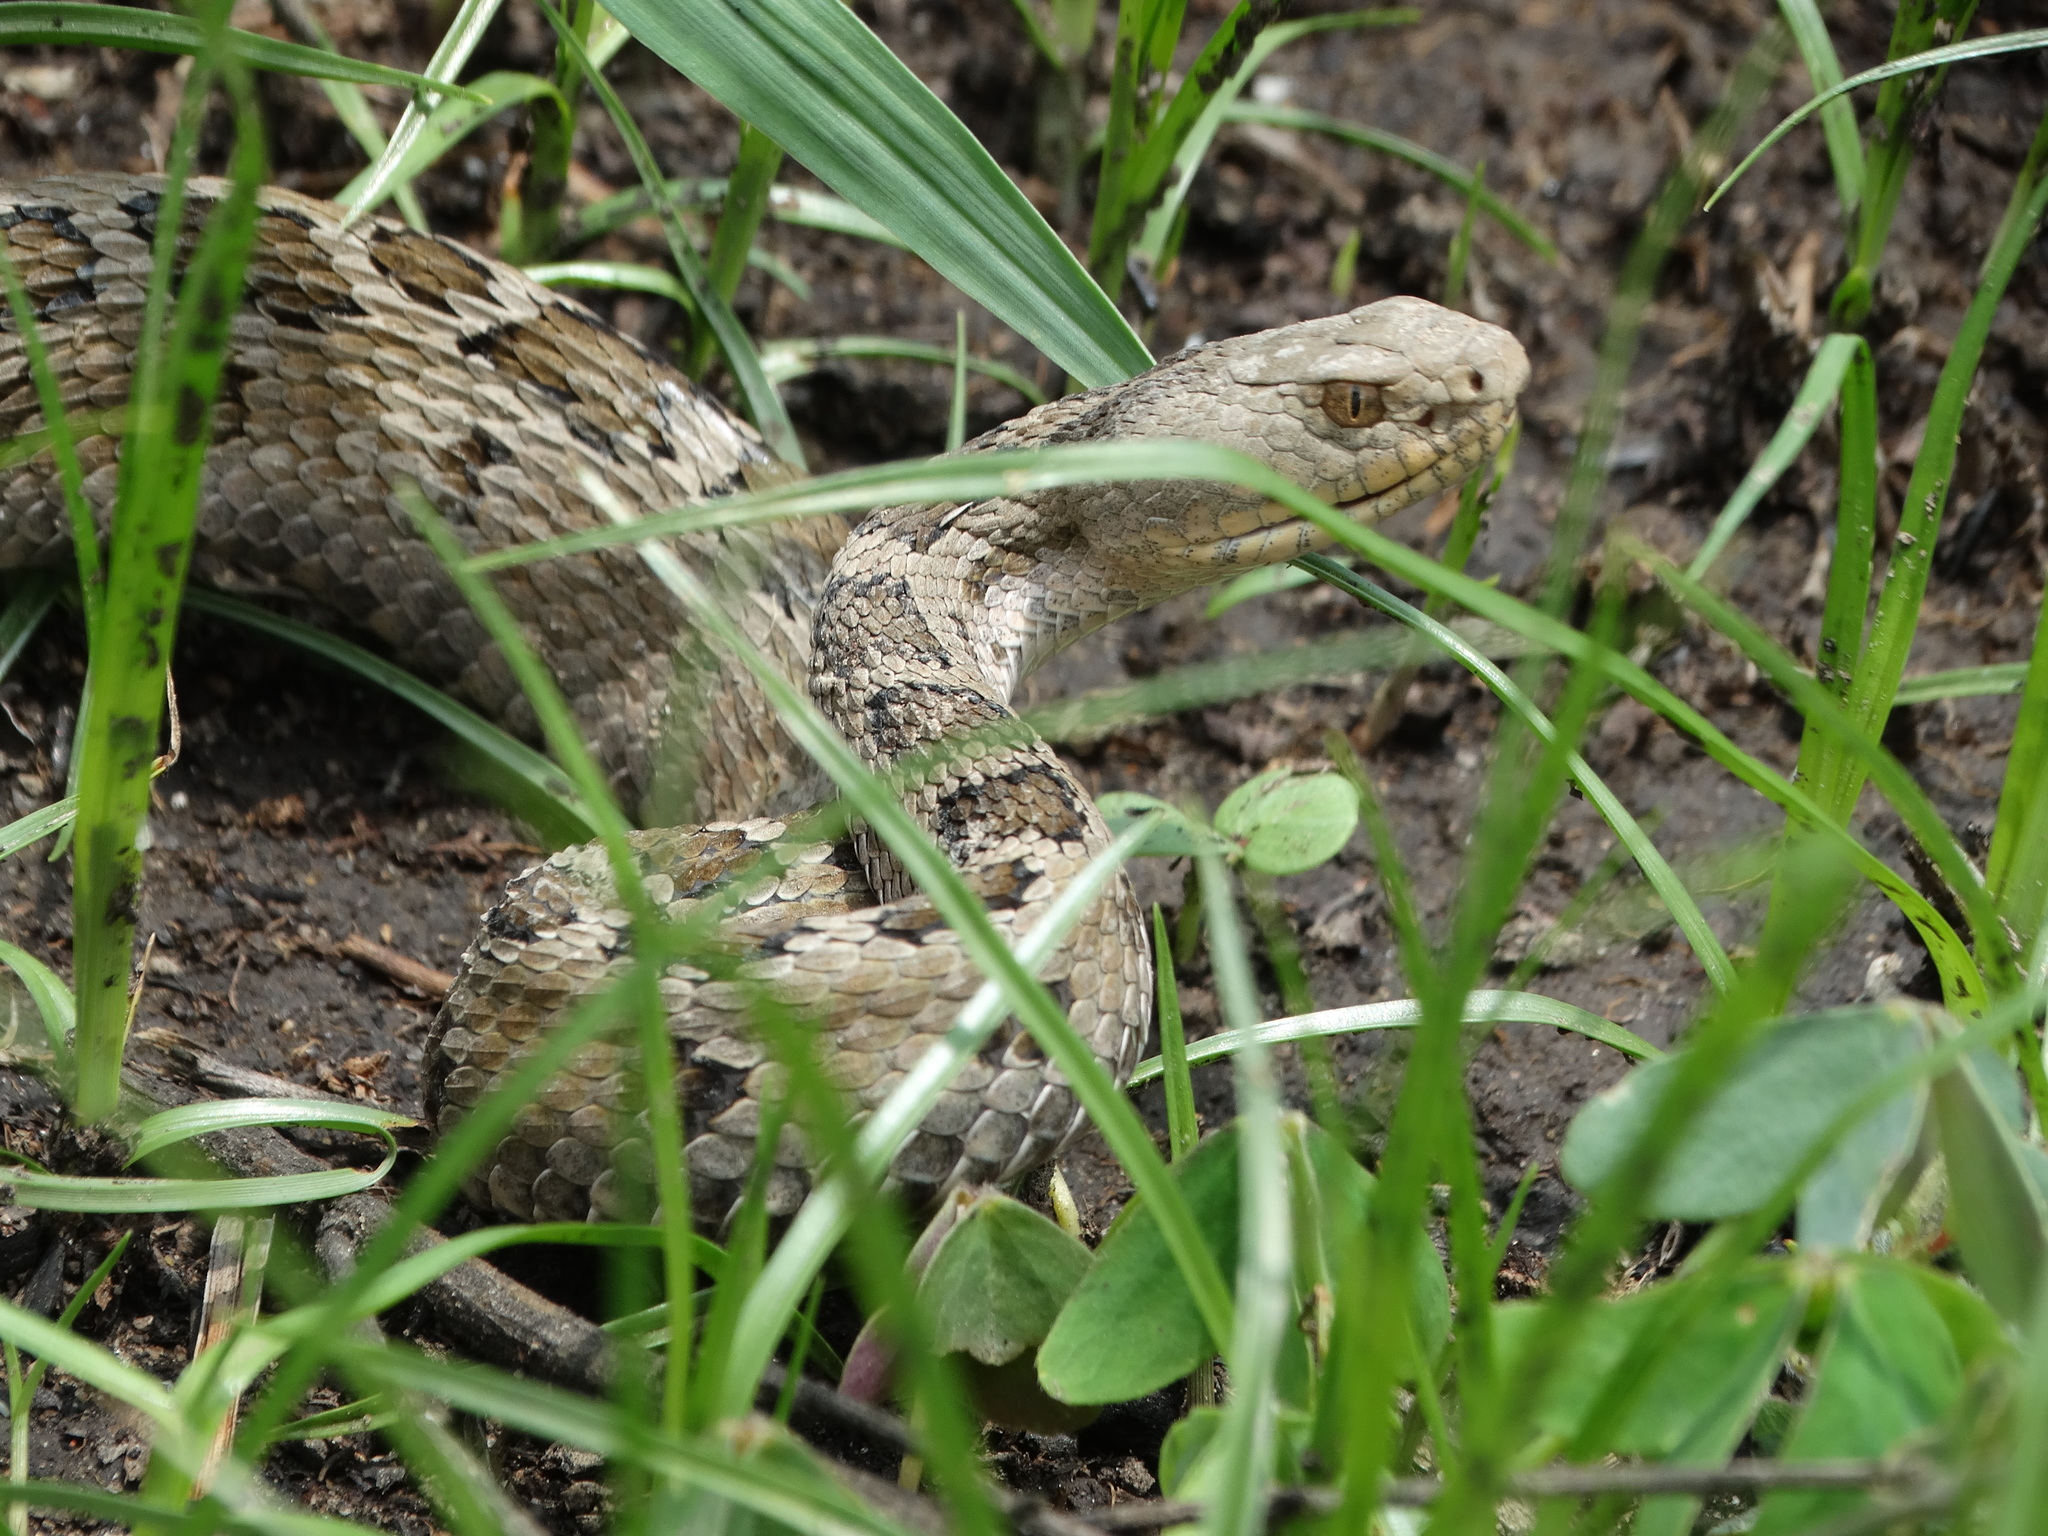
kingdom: Animalia
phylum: Chordata
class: Squamata
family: Viperidae
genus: Crotalus
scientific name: Crotalus ravus
